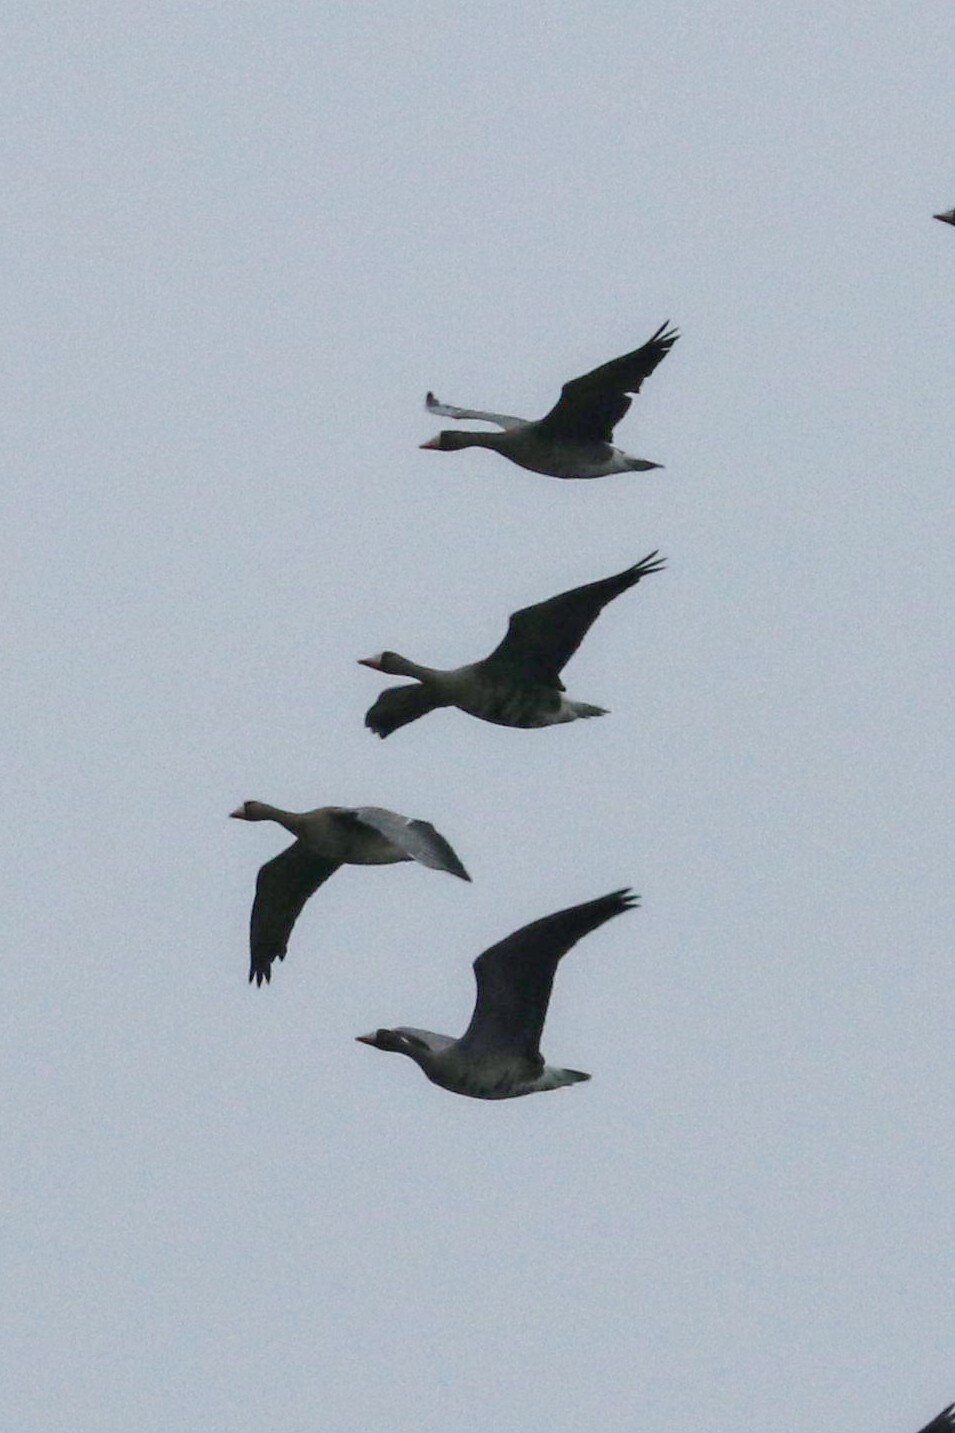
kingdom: Animalia
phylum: Chordata
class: Aves
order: Anseriformes
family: Anatidae
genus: Anser
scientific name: Anser albifrons
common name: Greater white-fronted goose
